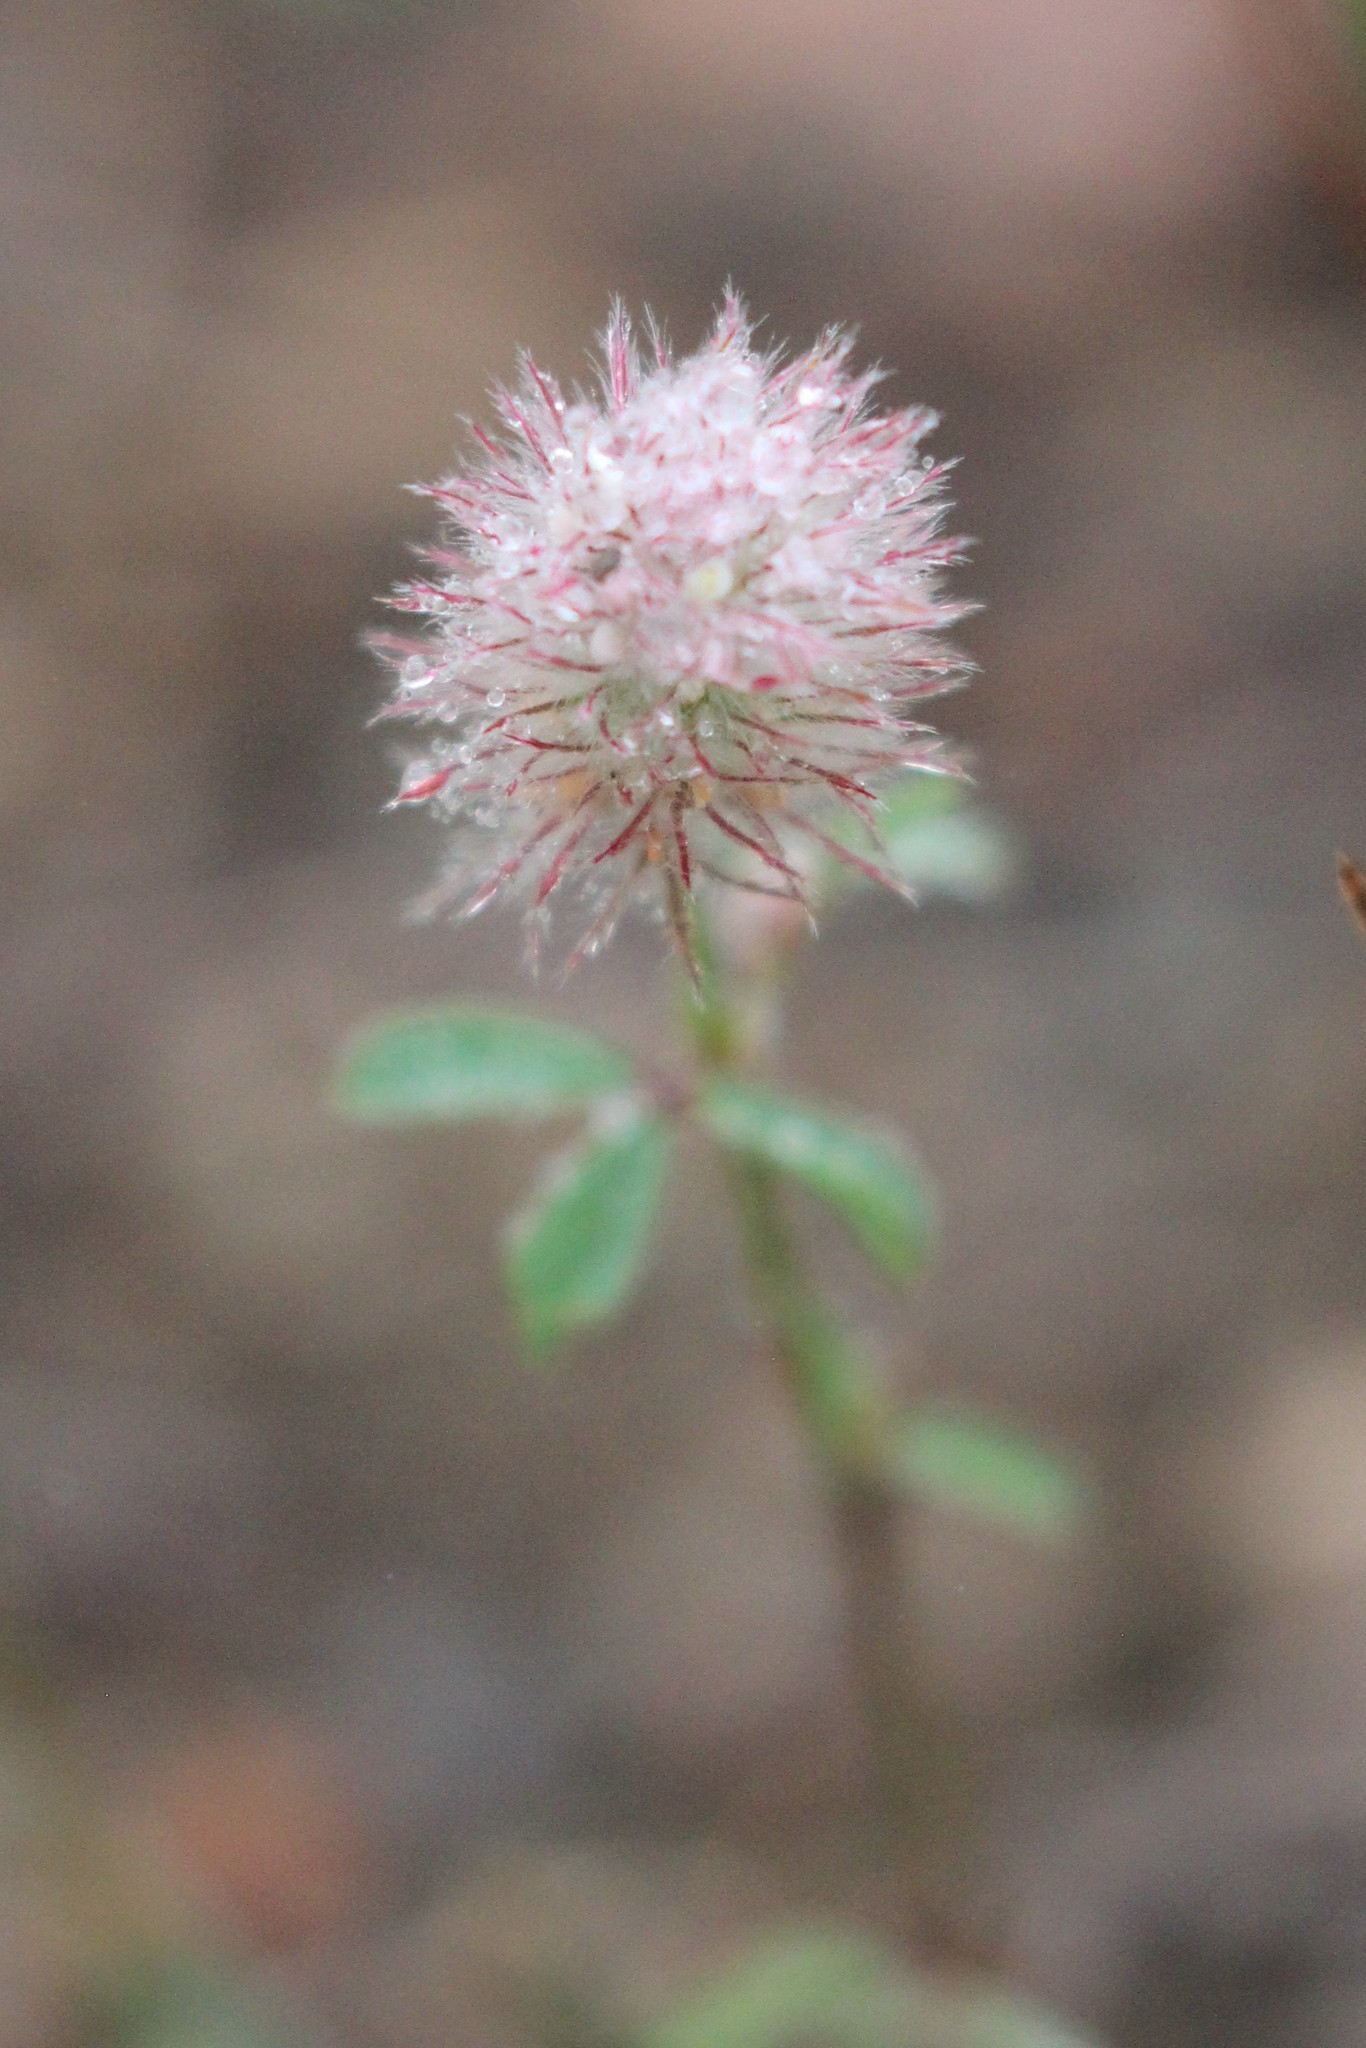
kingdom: Plantae
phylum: Tracheophyta
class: Magnoliopsida
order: Fabales
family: Fabaceae
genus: Trifolium
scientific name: Trifolium arvense
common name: Hare's-foot clover
